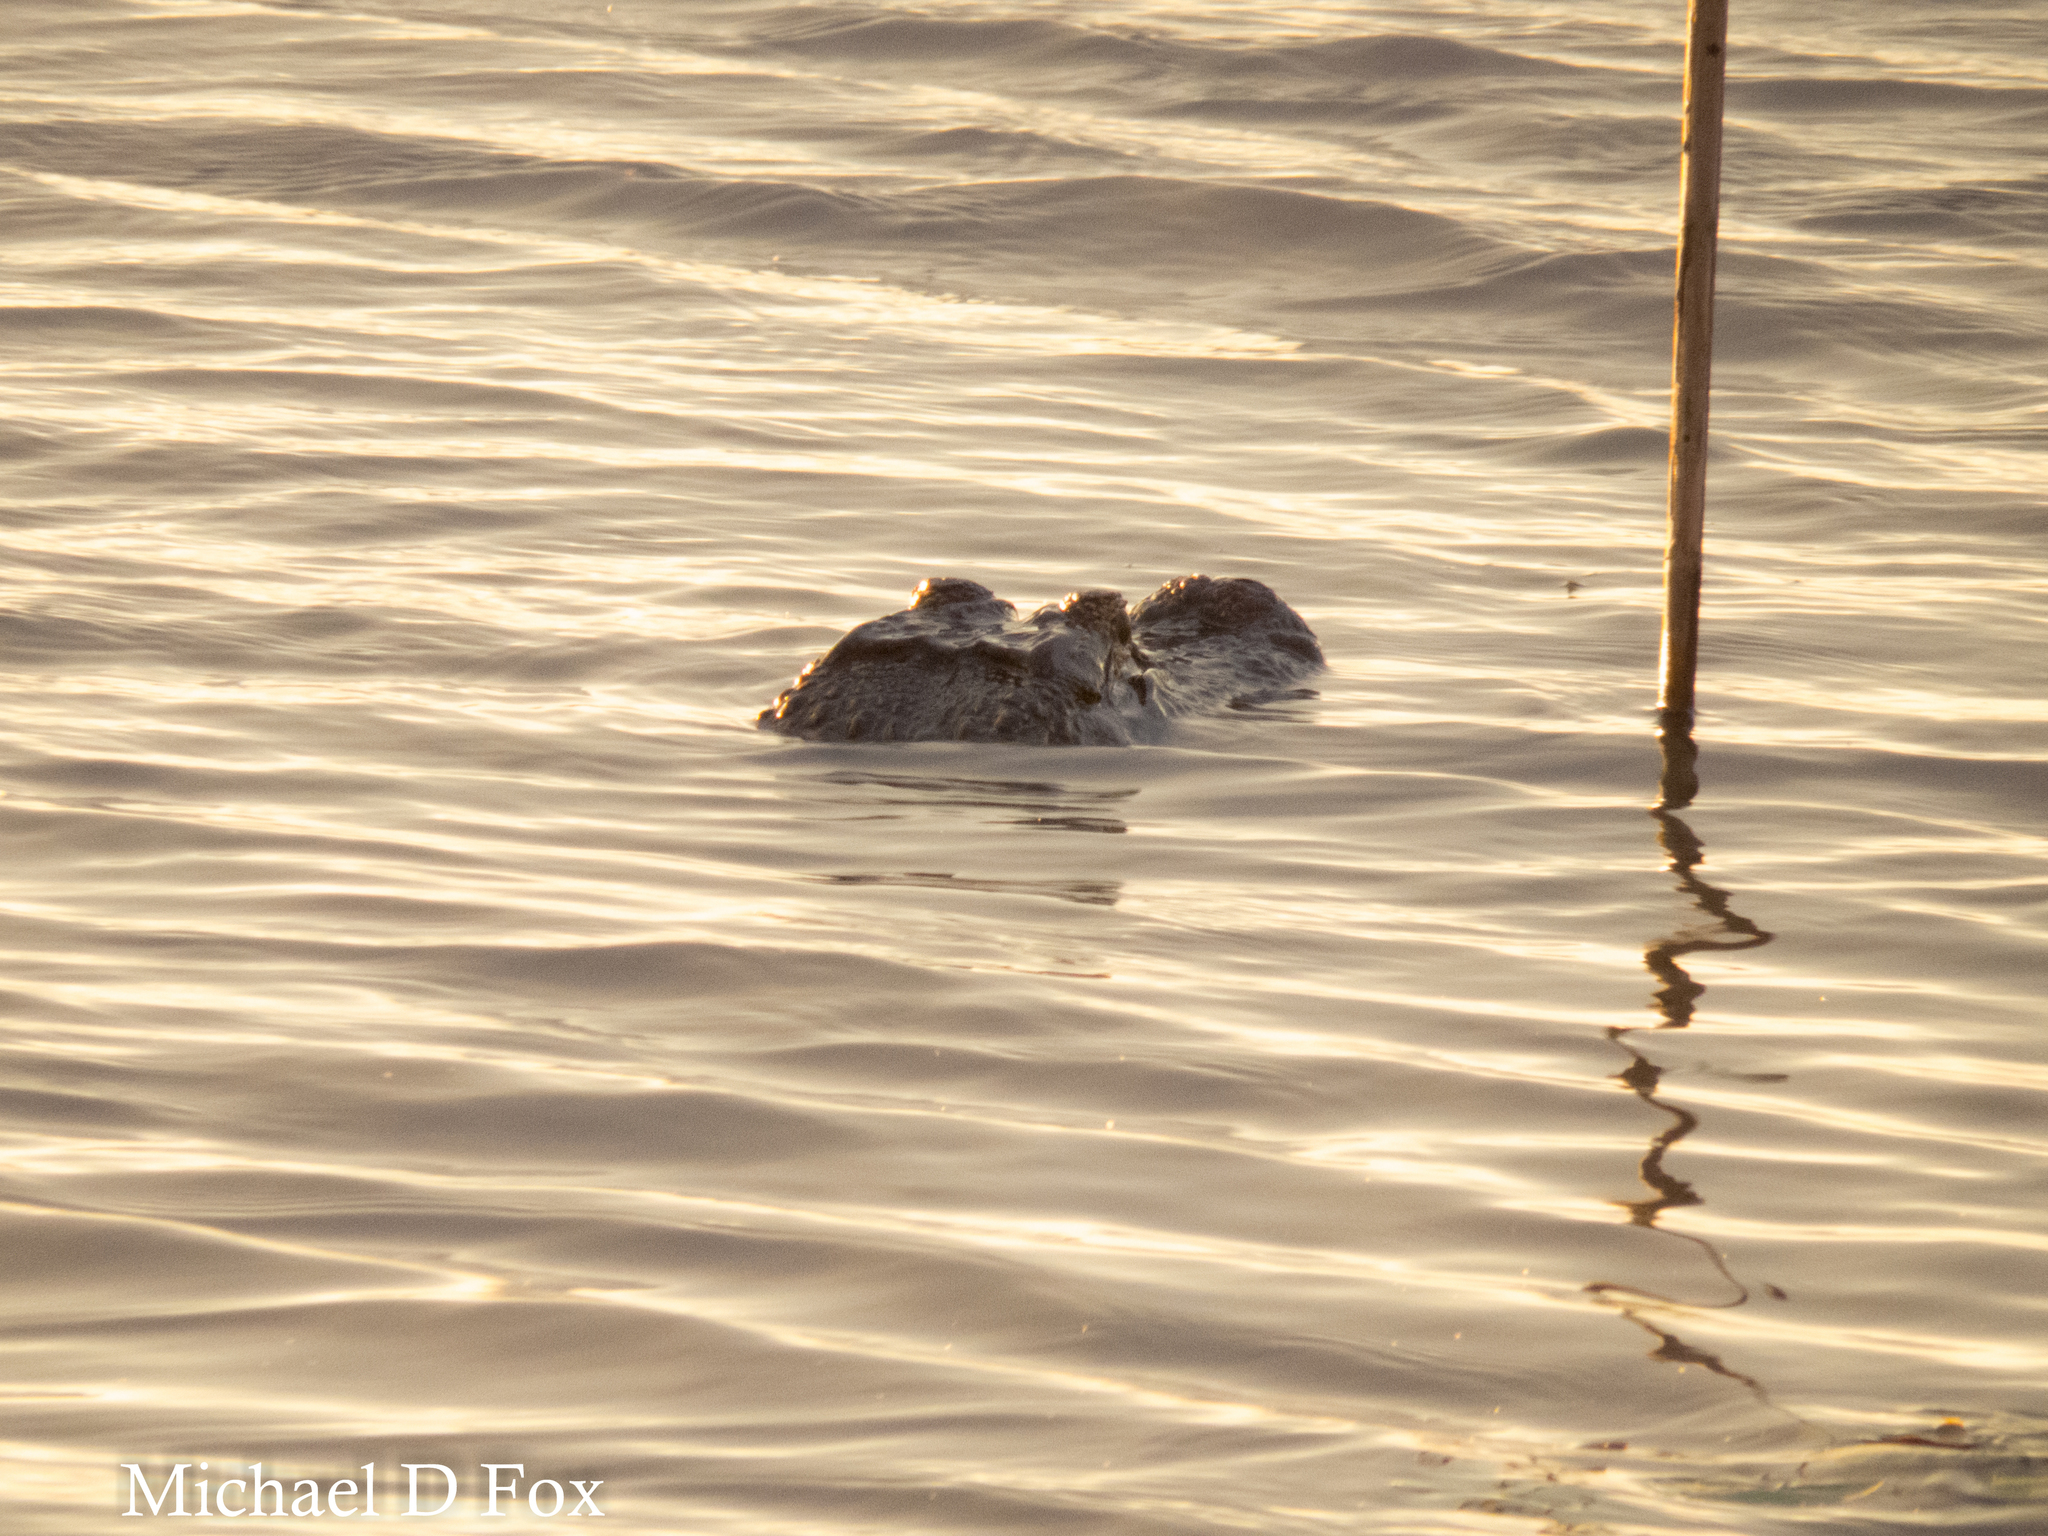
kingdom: Animalia
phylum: Chordata
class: Crocodylia
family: Alligatoridae
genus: Alligator
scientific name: Alligator mississippiensis
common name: American alligator
